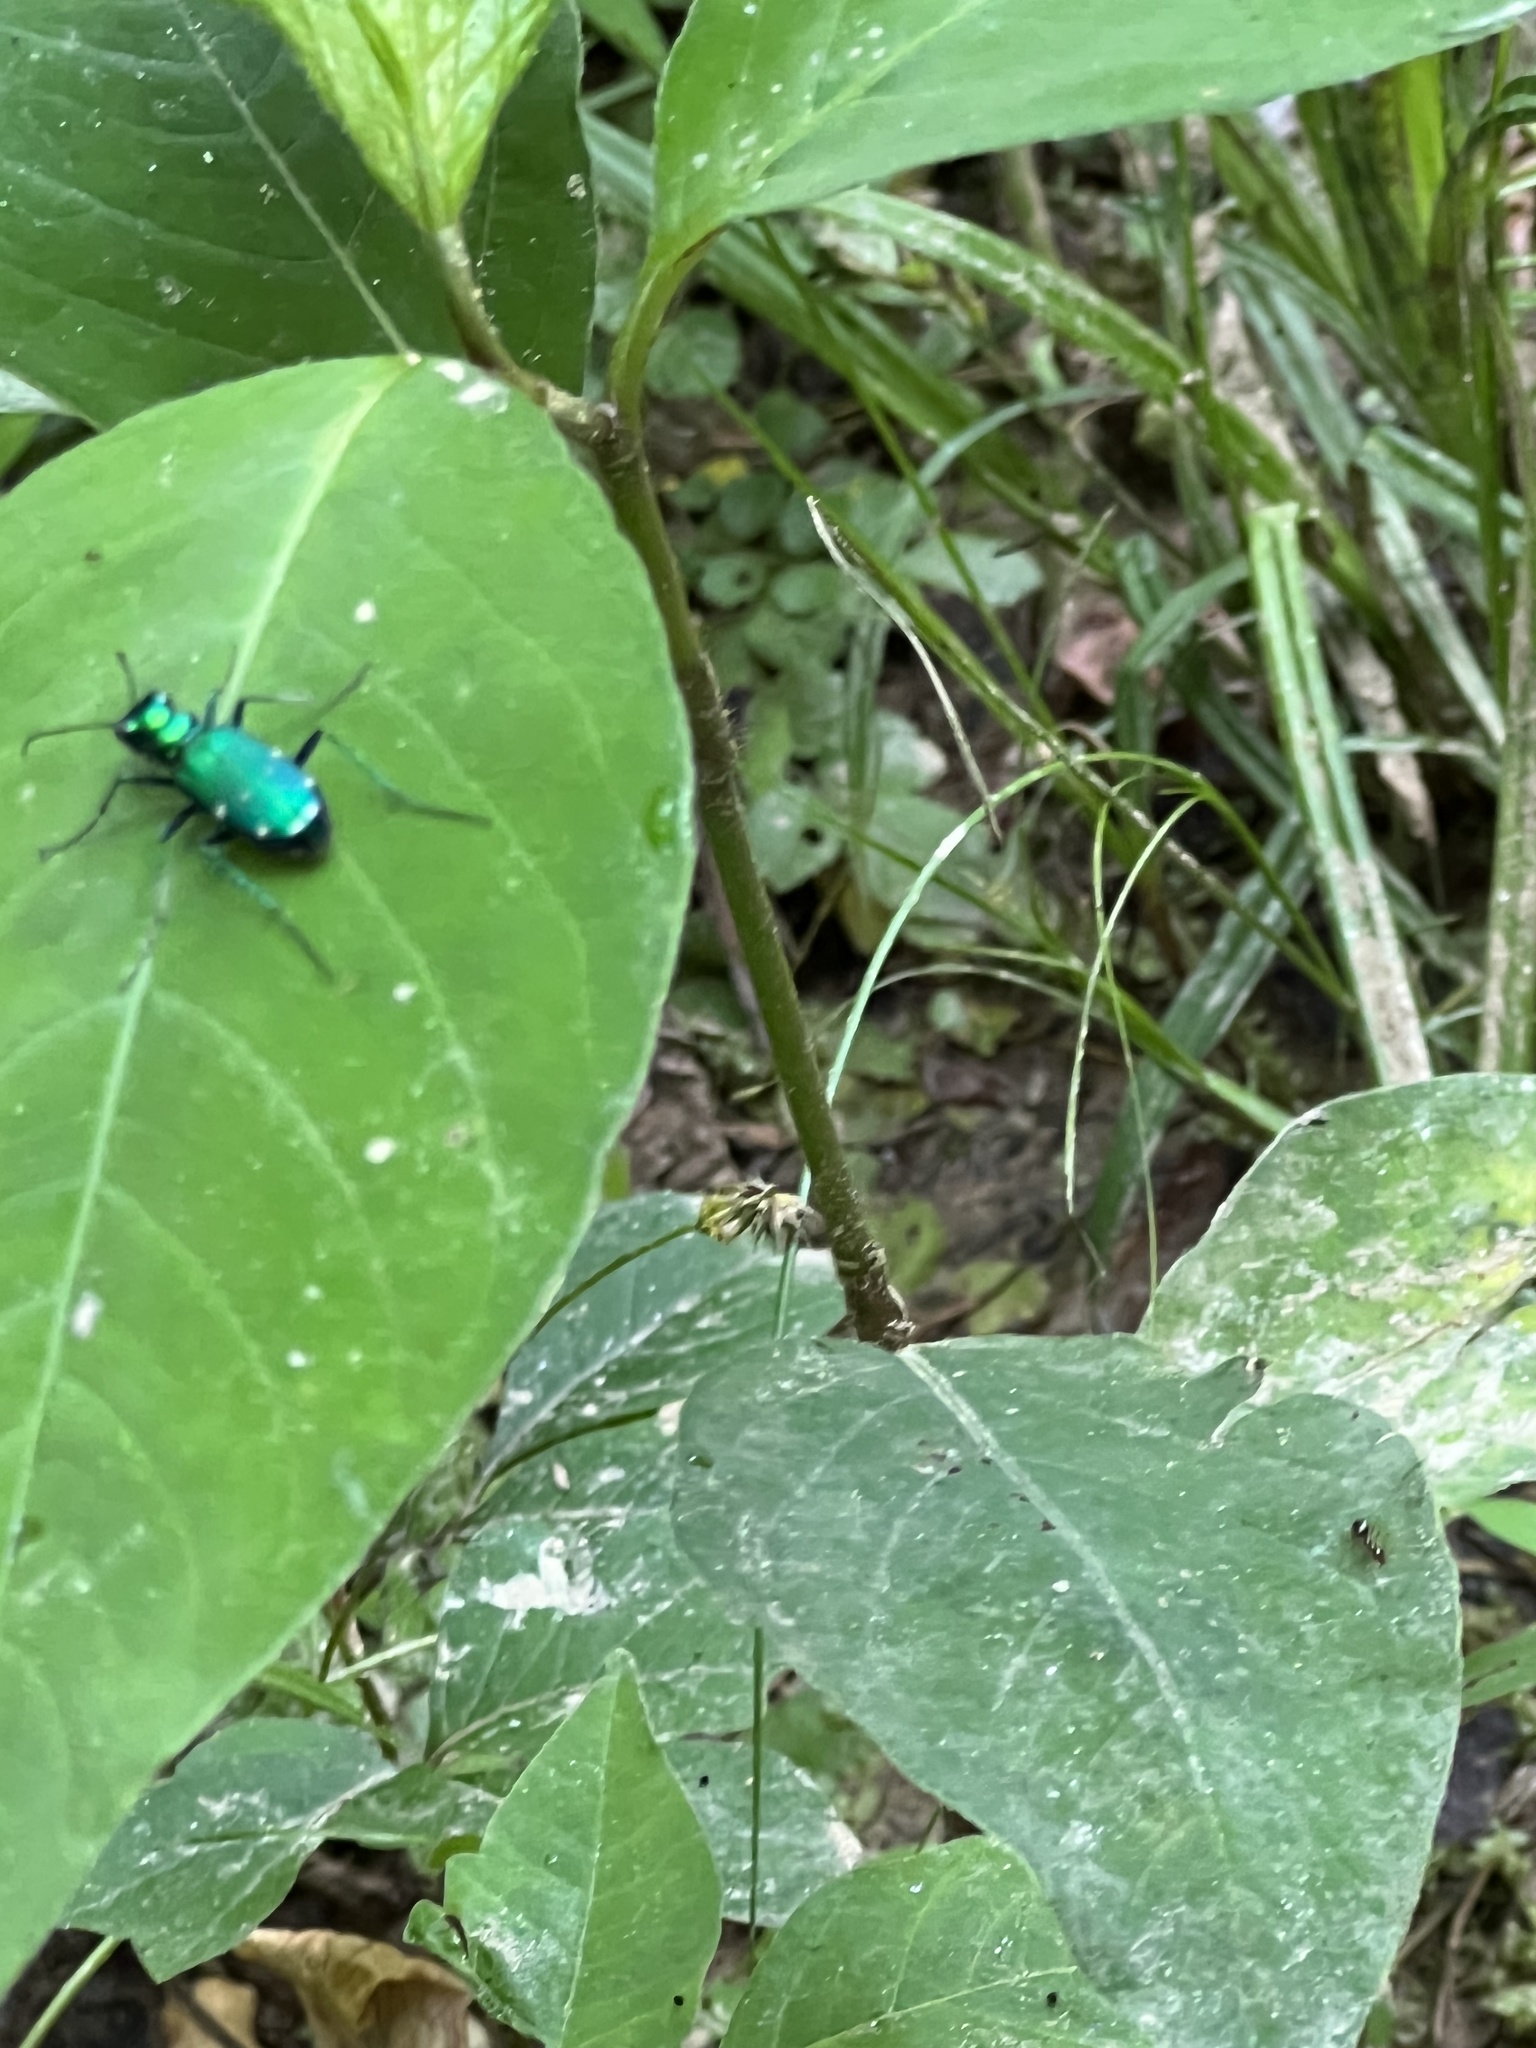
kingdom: Animalia
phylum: Arthropoda
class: Insecta
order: Coleoptera
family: Carabidae
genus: Cicindela
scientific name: Cicindela sexguttata
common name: Six-spotted tiger beetle
